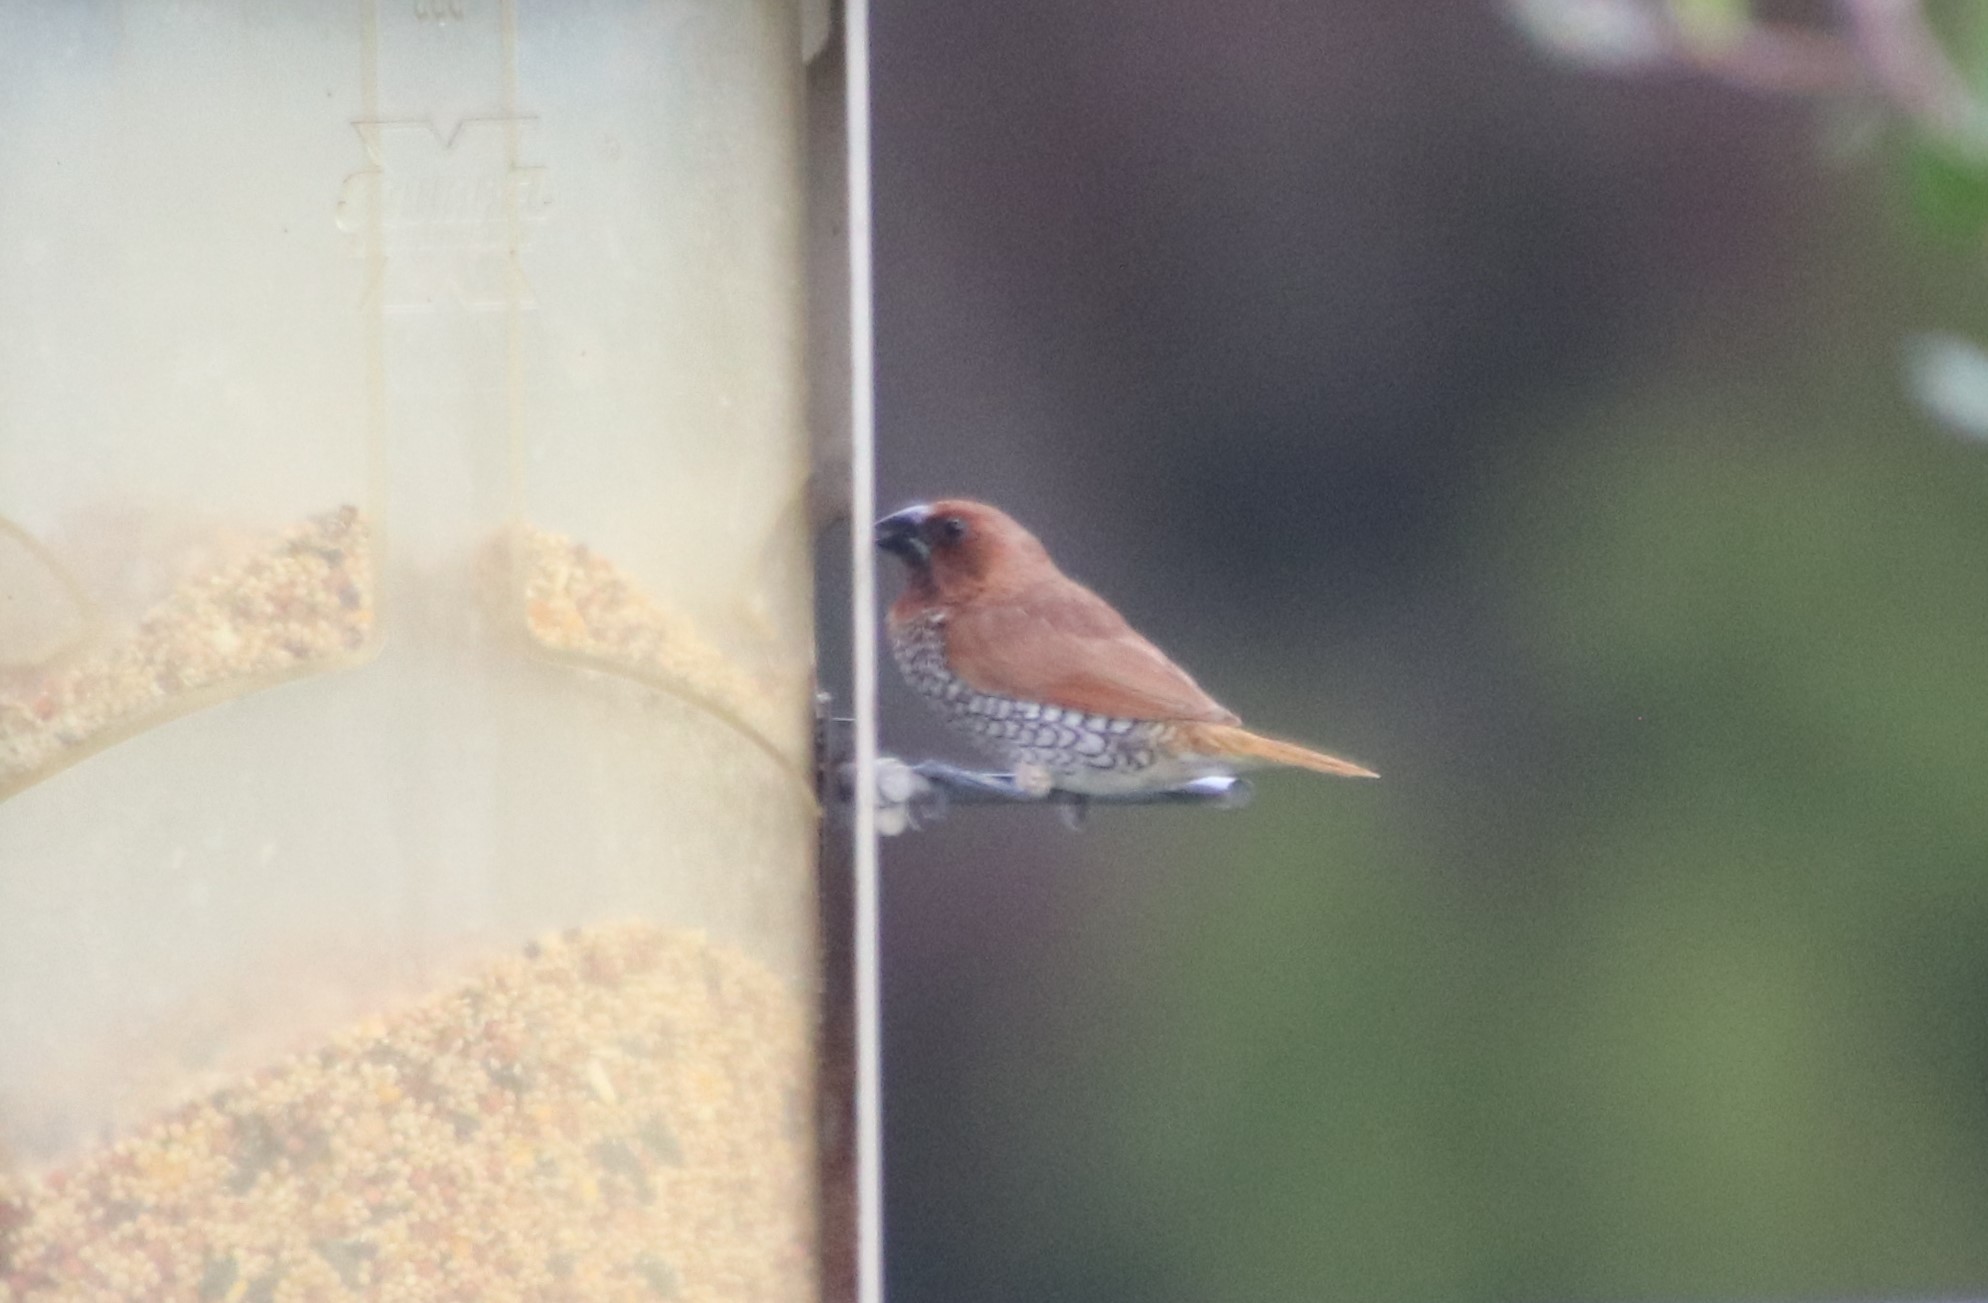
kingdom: Animalia
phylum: Chordata
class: Aves
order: Passeriformes
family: Estrildidae
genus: Lonchura
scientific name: Lonchura punctulata
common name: Scaly-breasted munia
